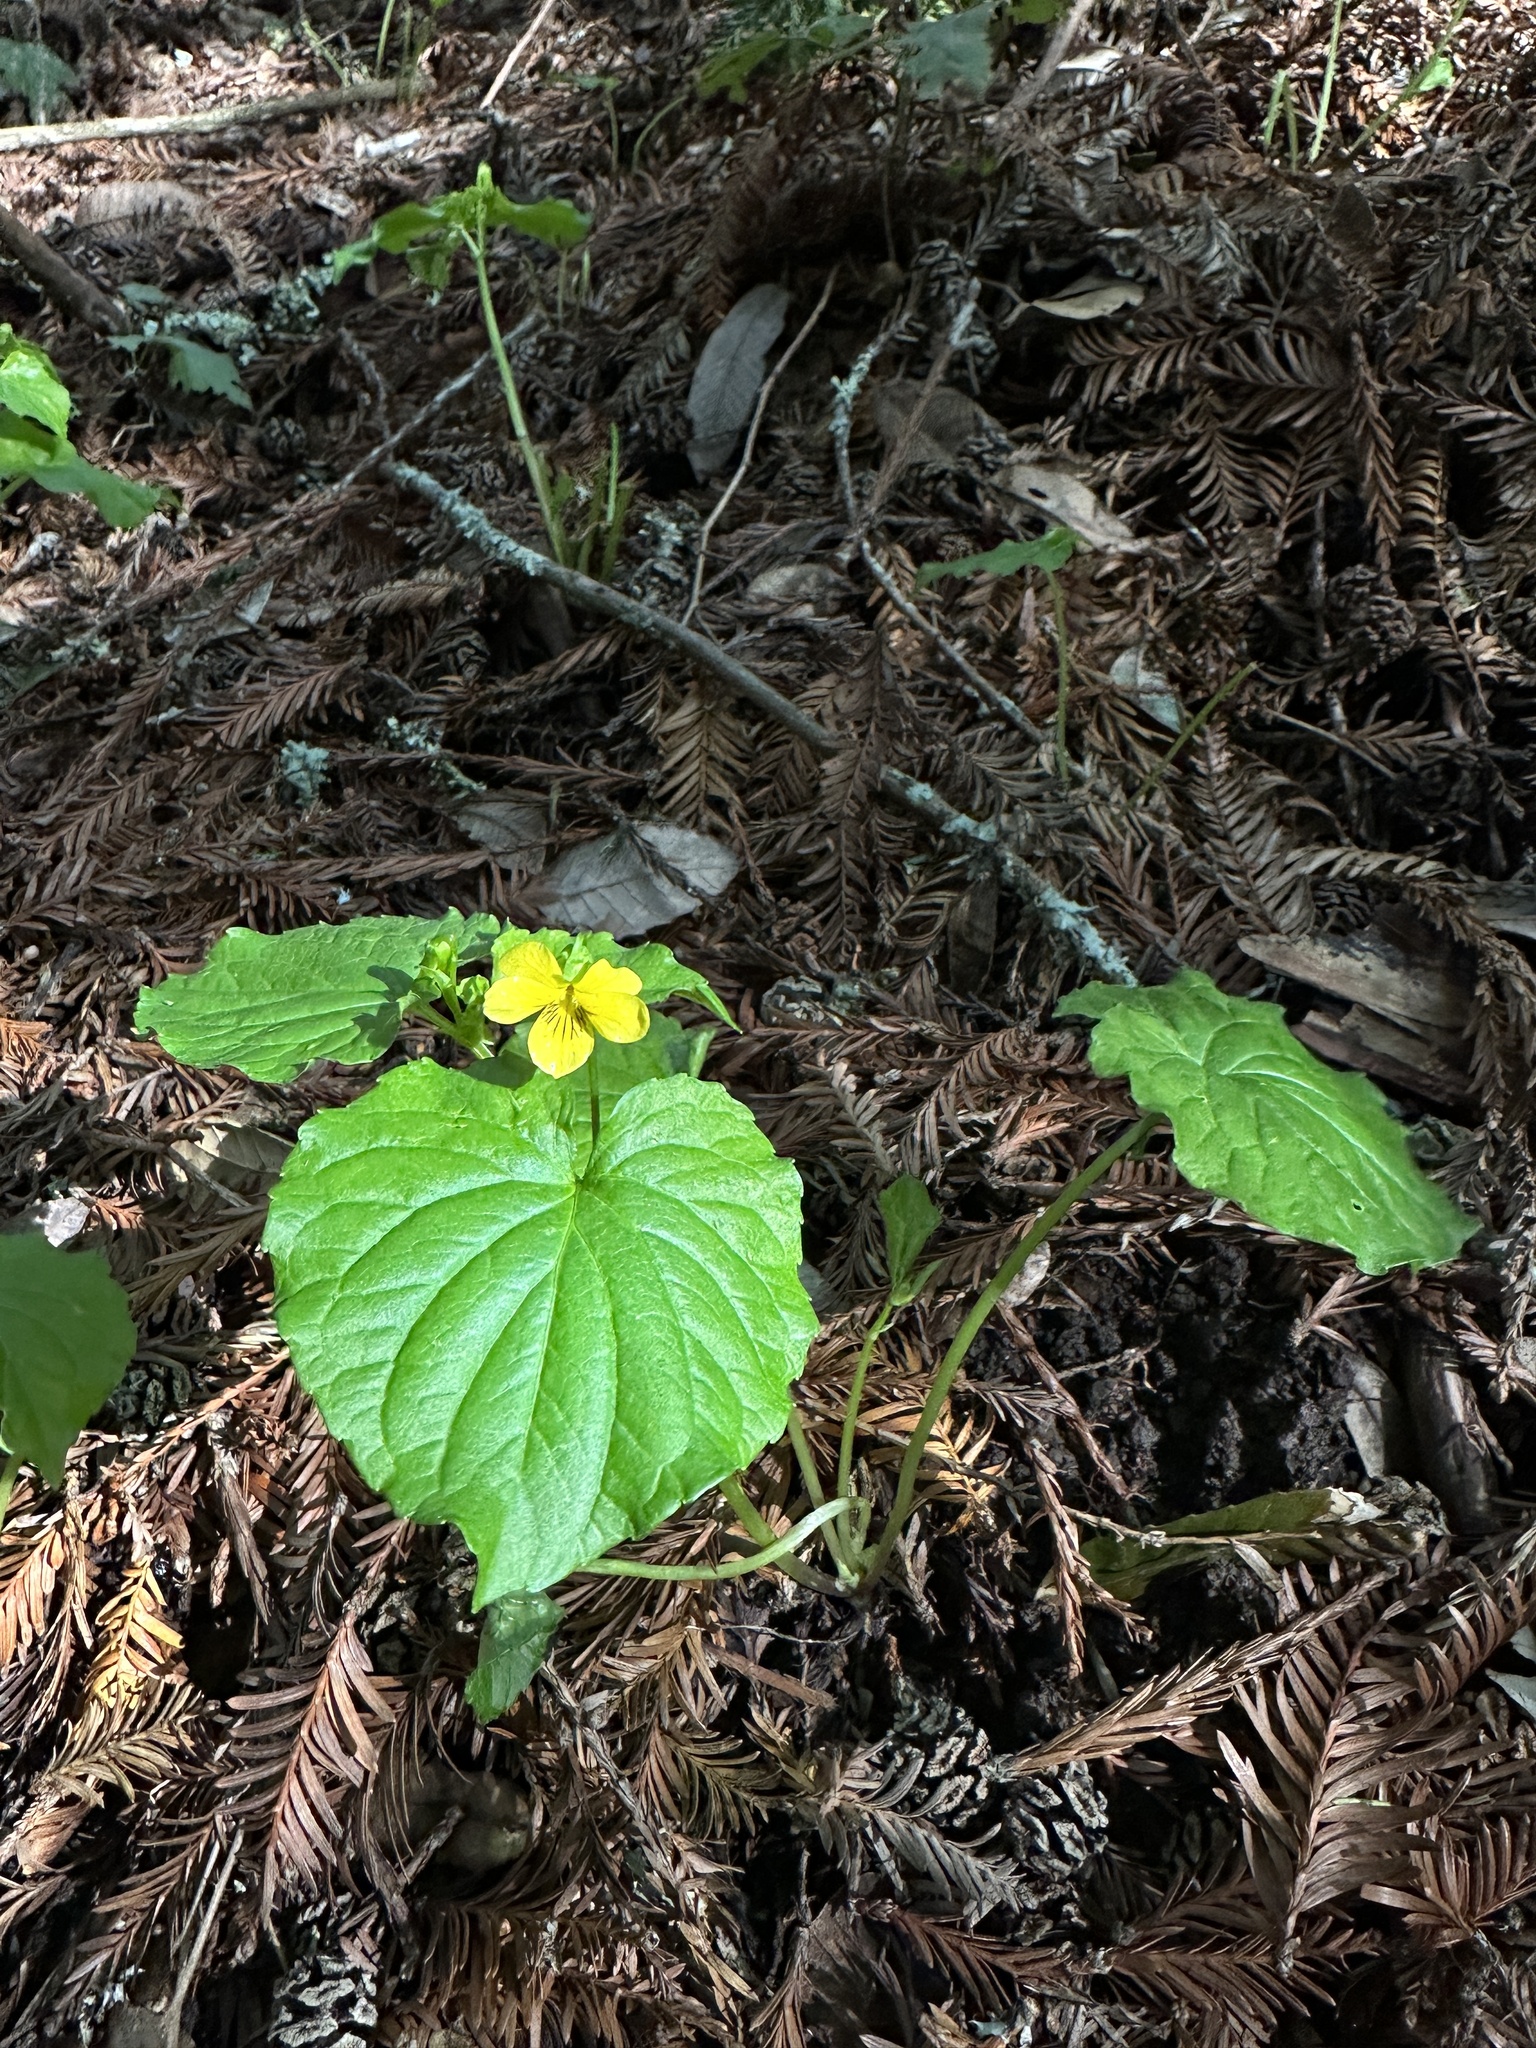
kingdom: Plantae
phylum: Tracheophyta
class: Magnoliopsida
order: Malpighiales
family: Violaceae
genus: Viola
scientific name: Viola glabella
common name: Stream violet
